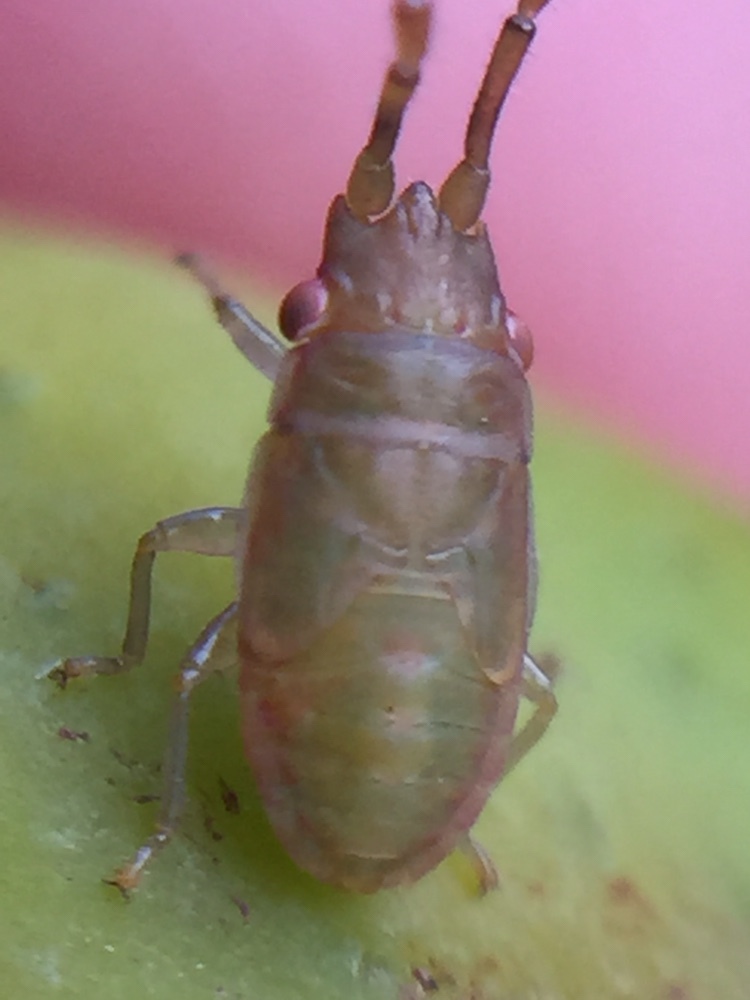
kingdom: Animalia
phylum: Arthropoda
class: Insecta
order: Hemiptera
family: Meschiidae
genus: Meschia
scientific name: Meschia barrowensis
